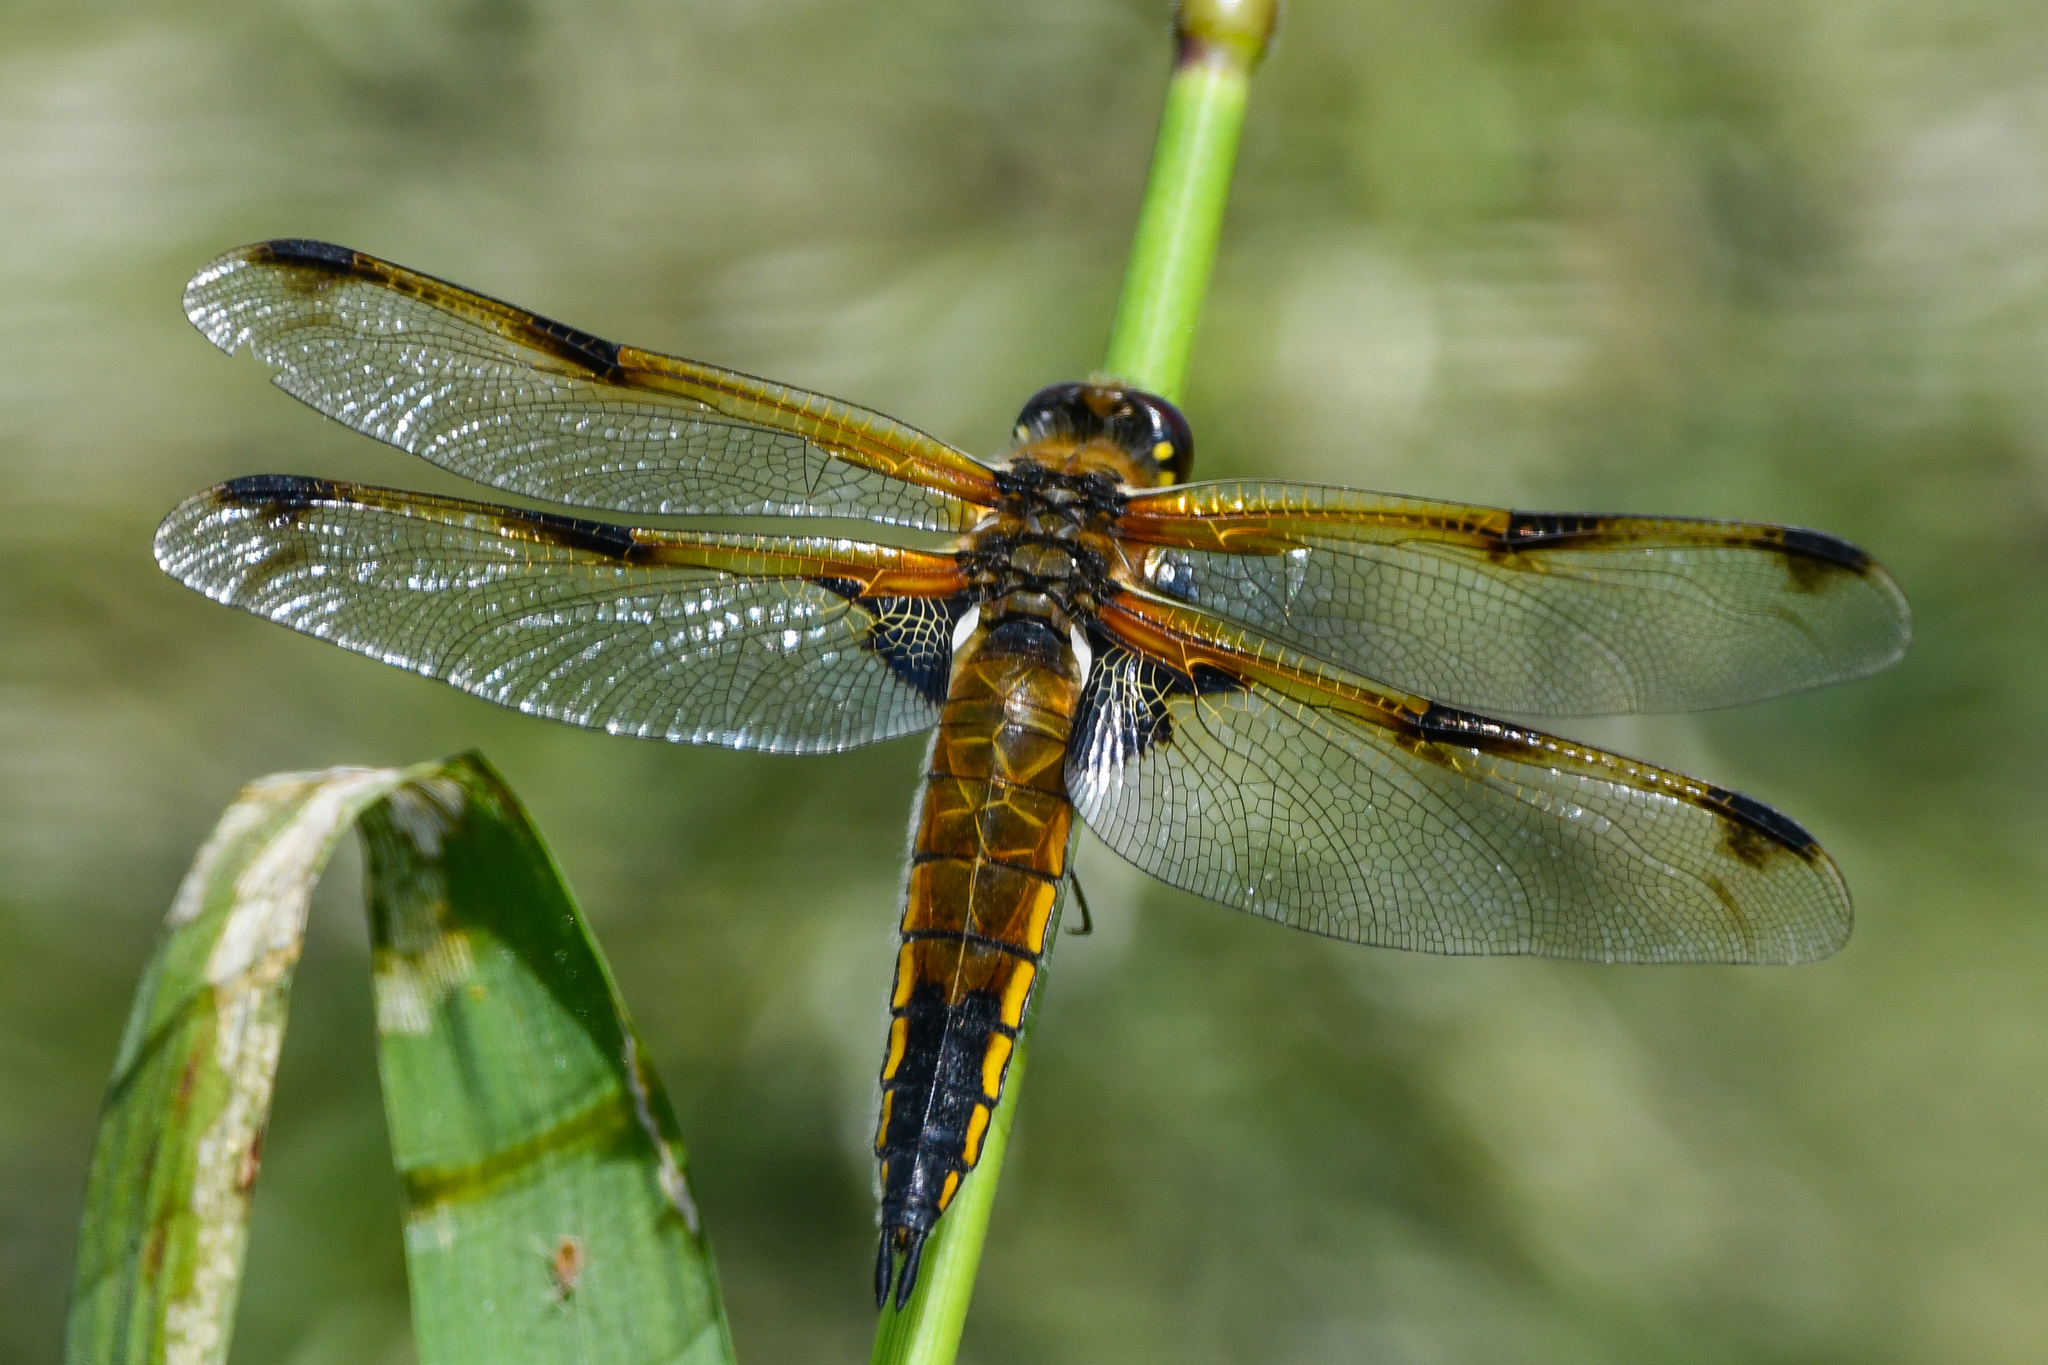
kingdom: Animalia
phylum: Arthropoda
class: Insecta
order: Odonata
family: Libellulidae
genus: Libellula
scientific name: Libellula quadrimaculata
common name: Four-spotted chaser
